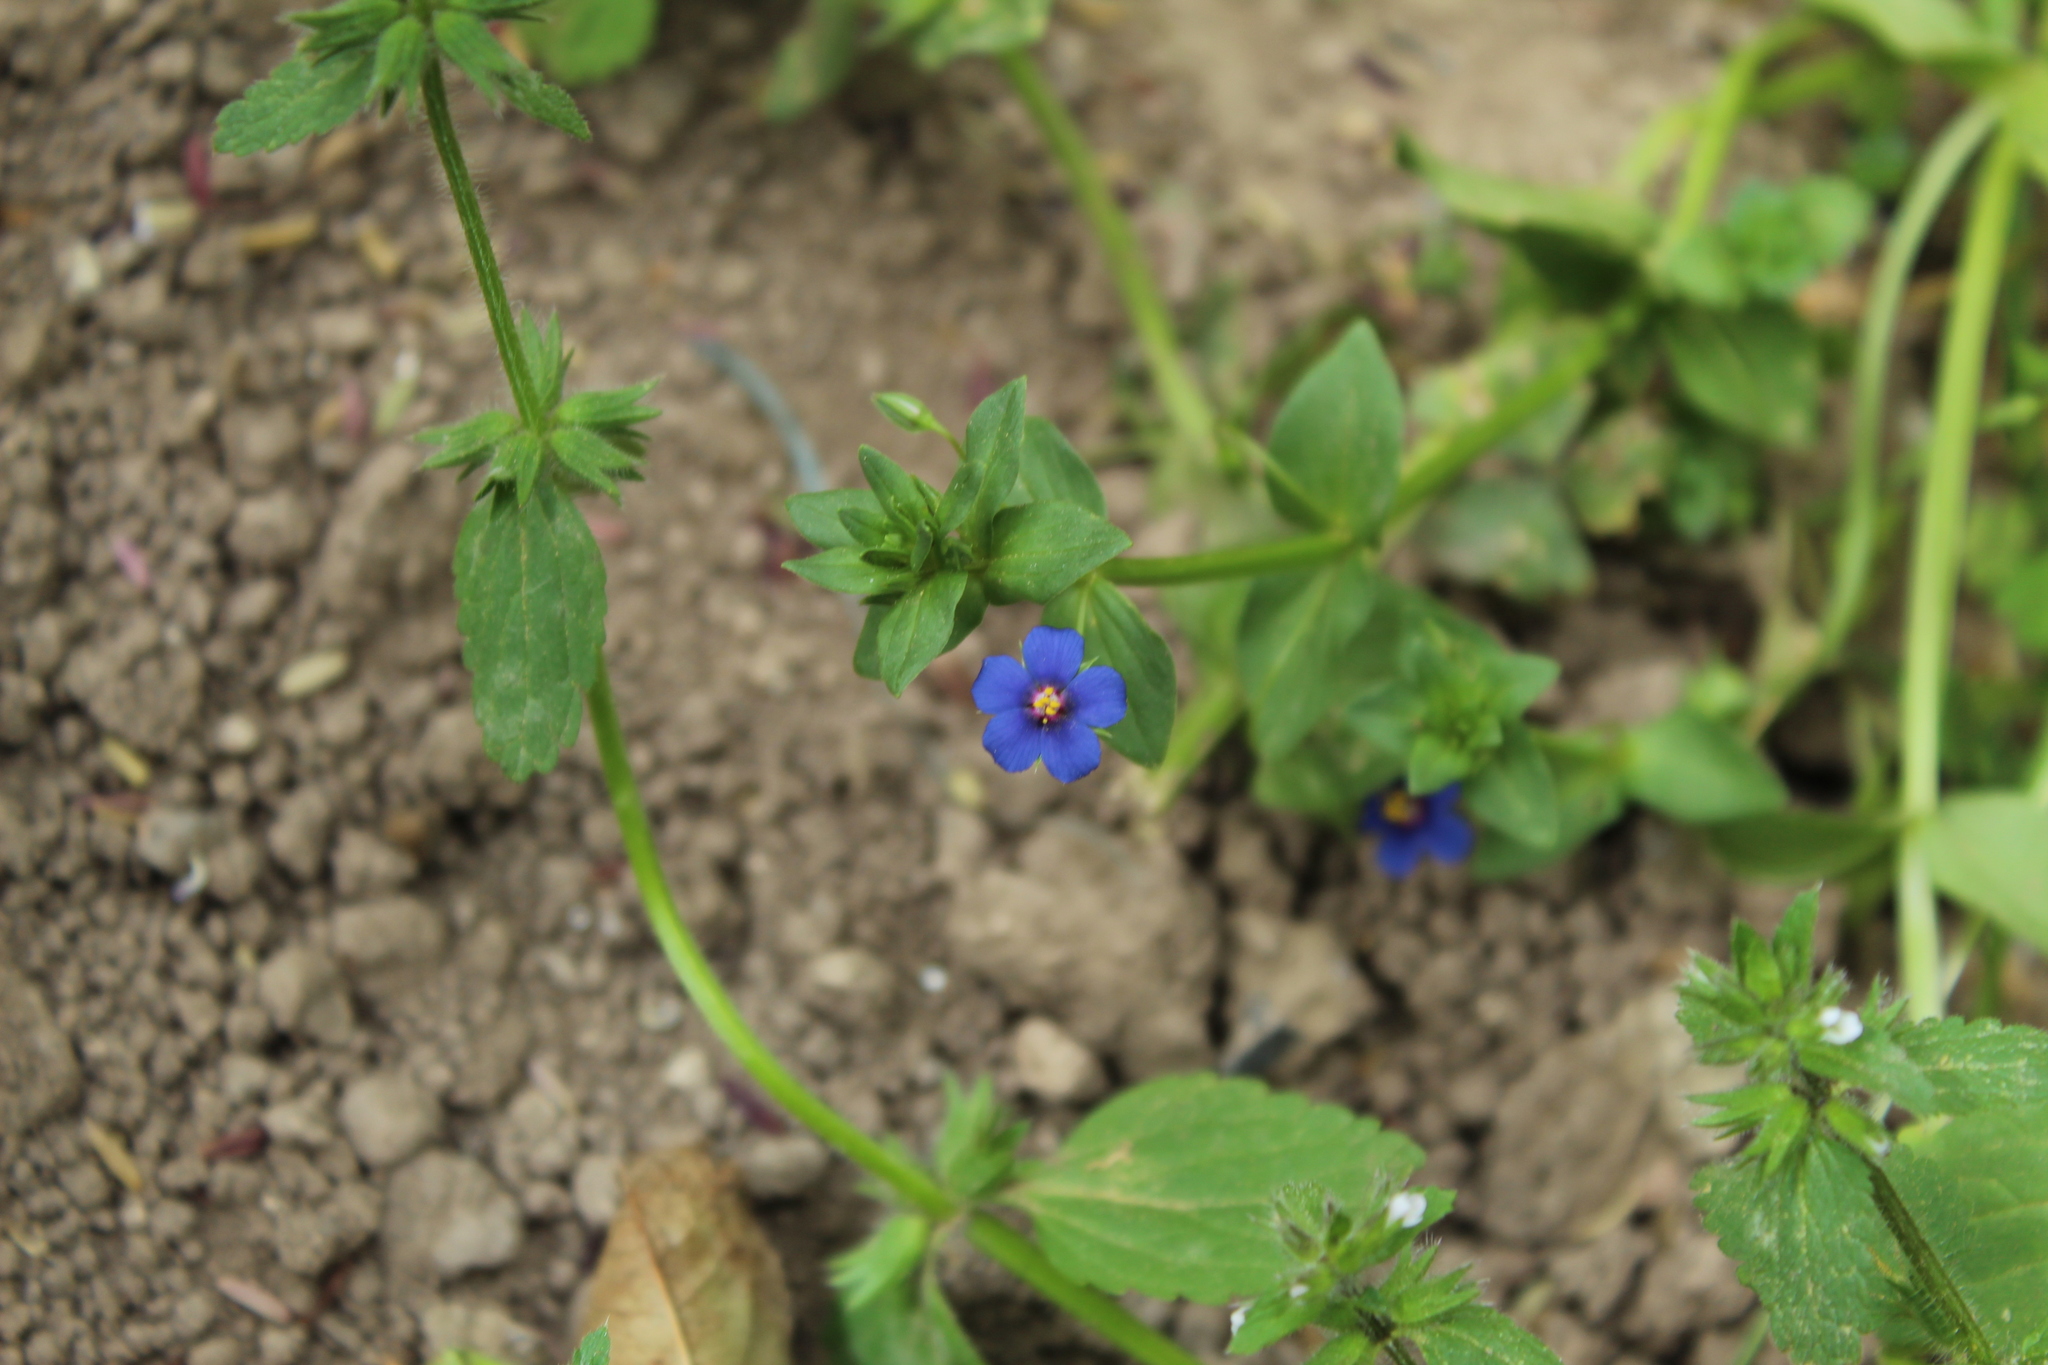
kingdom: Plantae
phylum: Tracheophyta
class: Magnoliopsida
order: Ericales
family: Primulaceae
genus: Lysimachia
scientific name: Lysimachia arvensis
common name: Scarlet pimpernel
